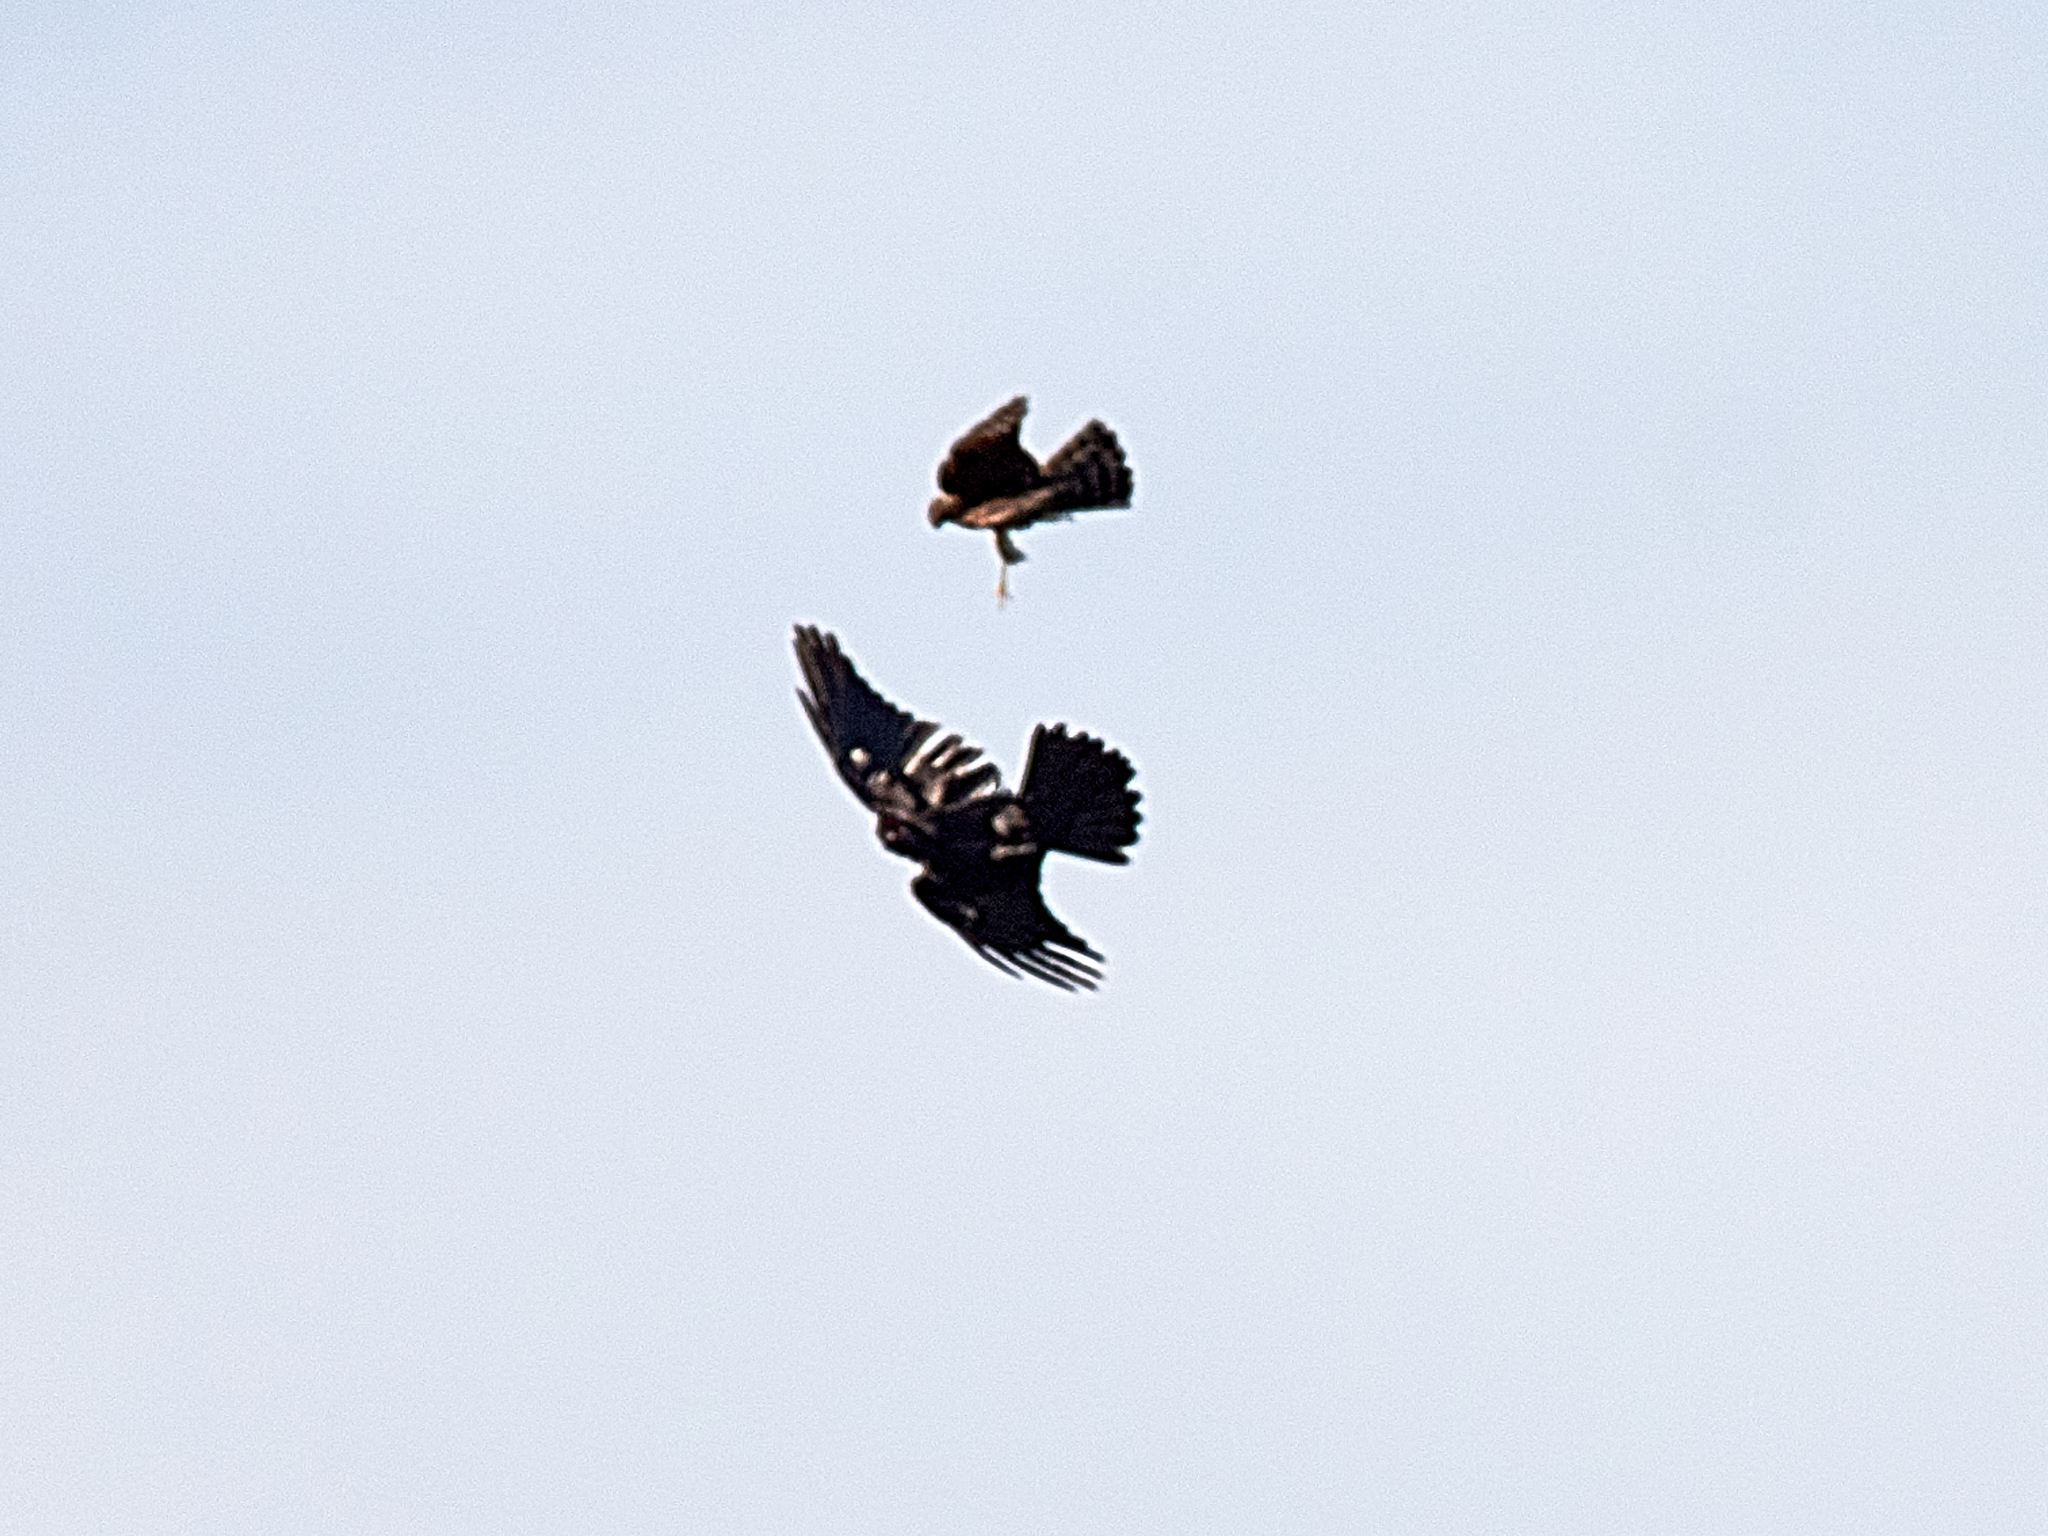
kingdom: Animalia
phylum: Chordata
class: Aves
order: Accipitriformes
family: Accipitridae
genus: Accipiter
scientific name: Accipiter nisus
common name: Eurasian sparrowhawk
